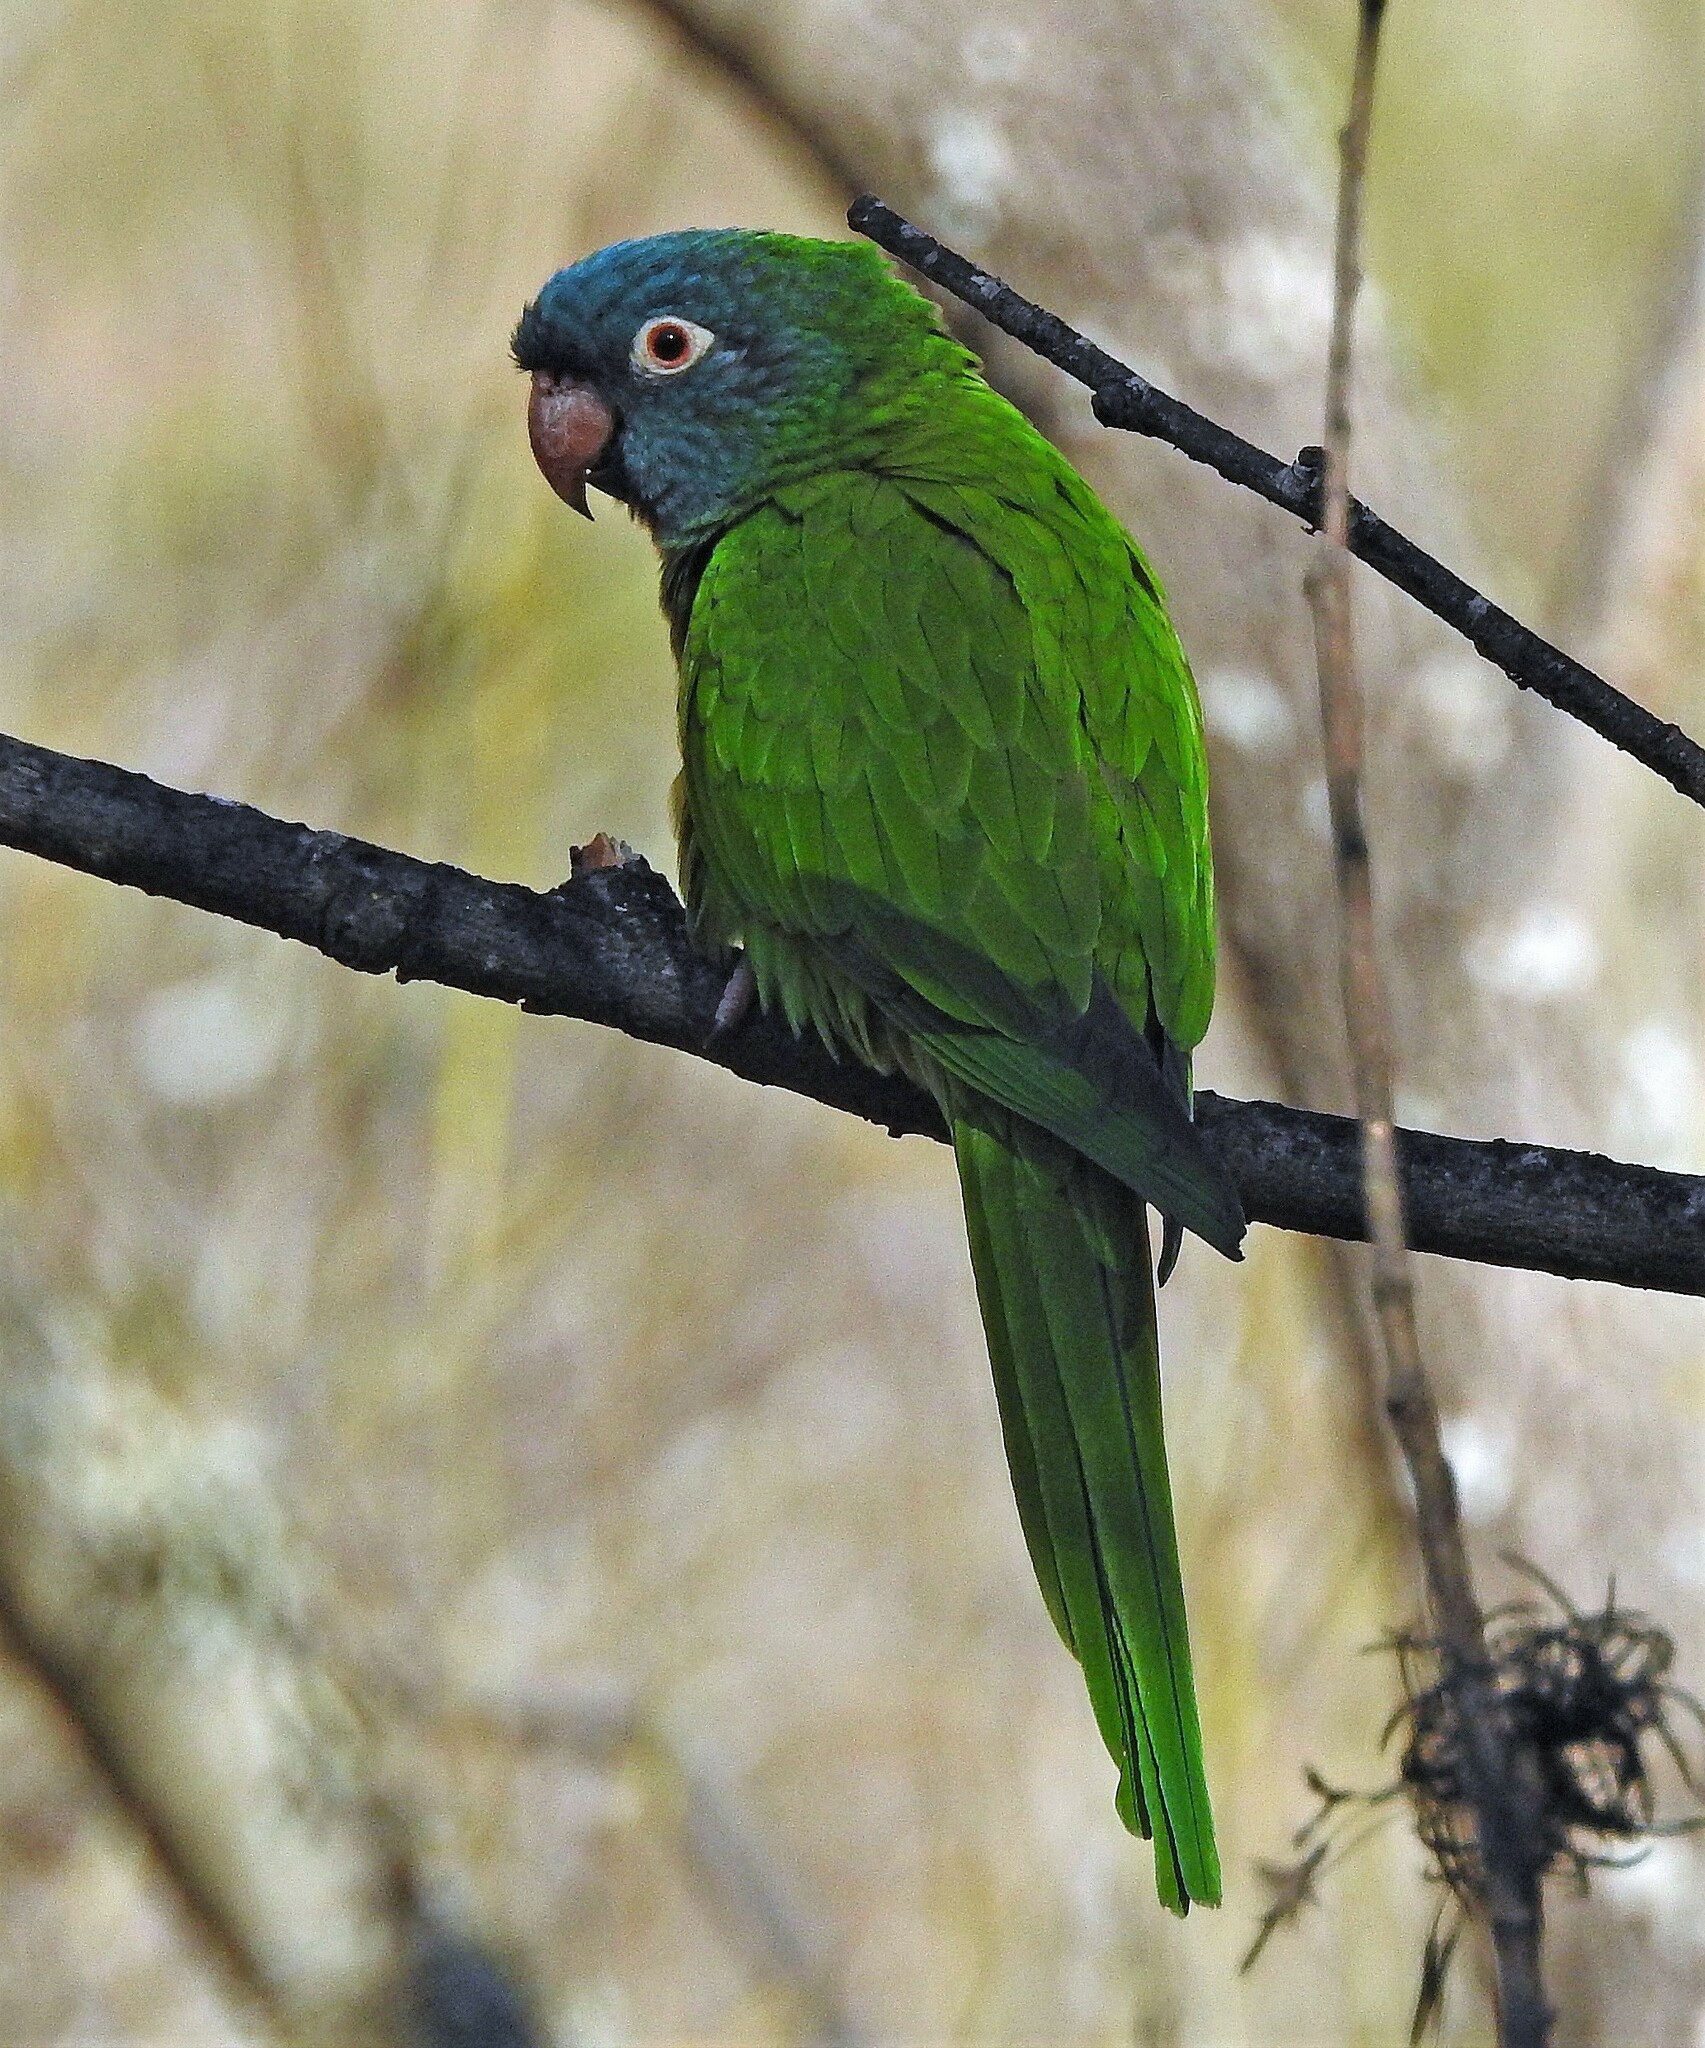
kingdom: Animalia
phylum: Chordata
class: Aves
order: Psittaciformes
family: Psittacidae
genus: Aratinga
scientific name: Aratinga acuticaudata
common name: Blue-crowned parakeet
